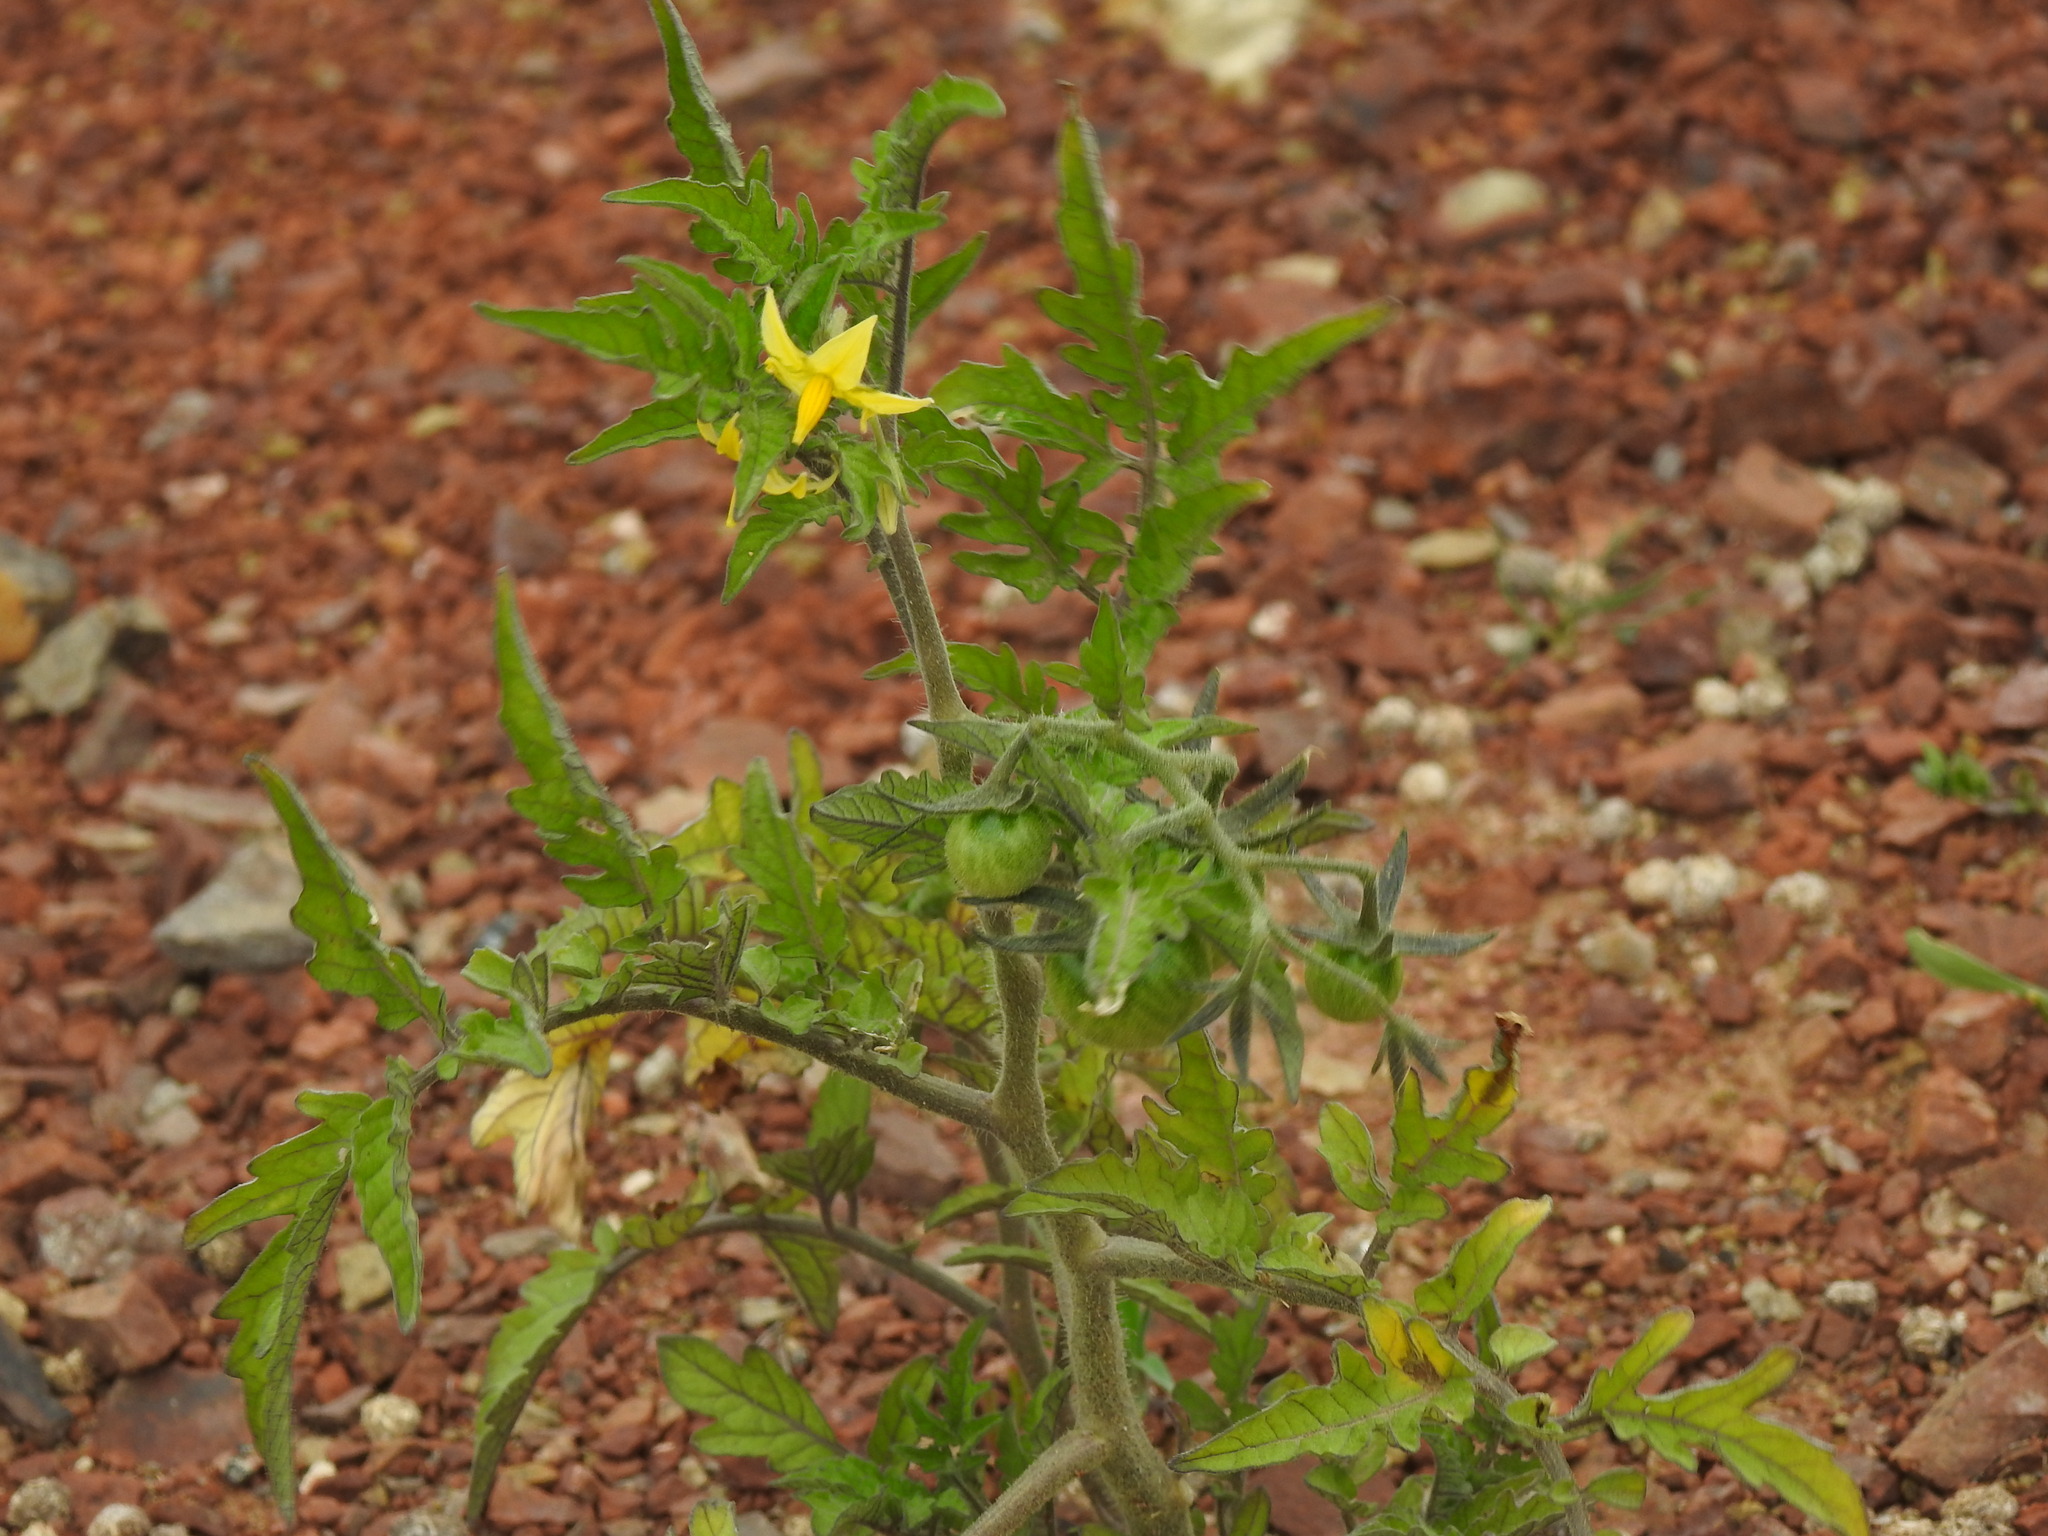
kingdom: Plantae
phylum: Tracheophyta
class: Magnoliopsida
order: Solanales
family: Solanaceae
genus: Solanum
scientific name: Solanum lycopersicum
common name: Garden tomato
